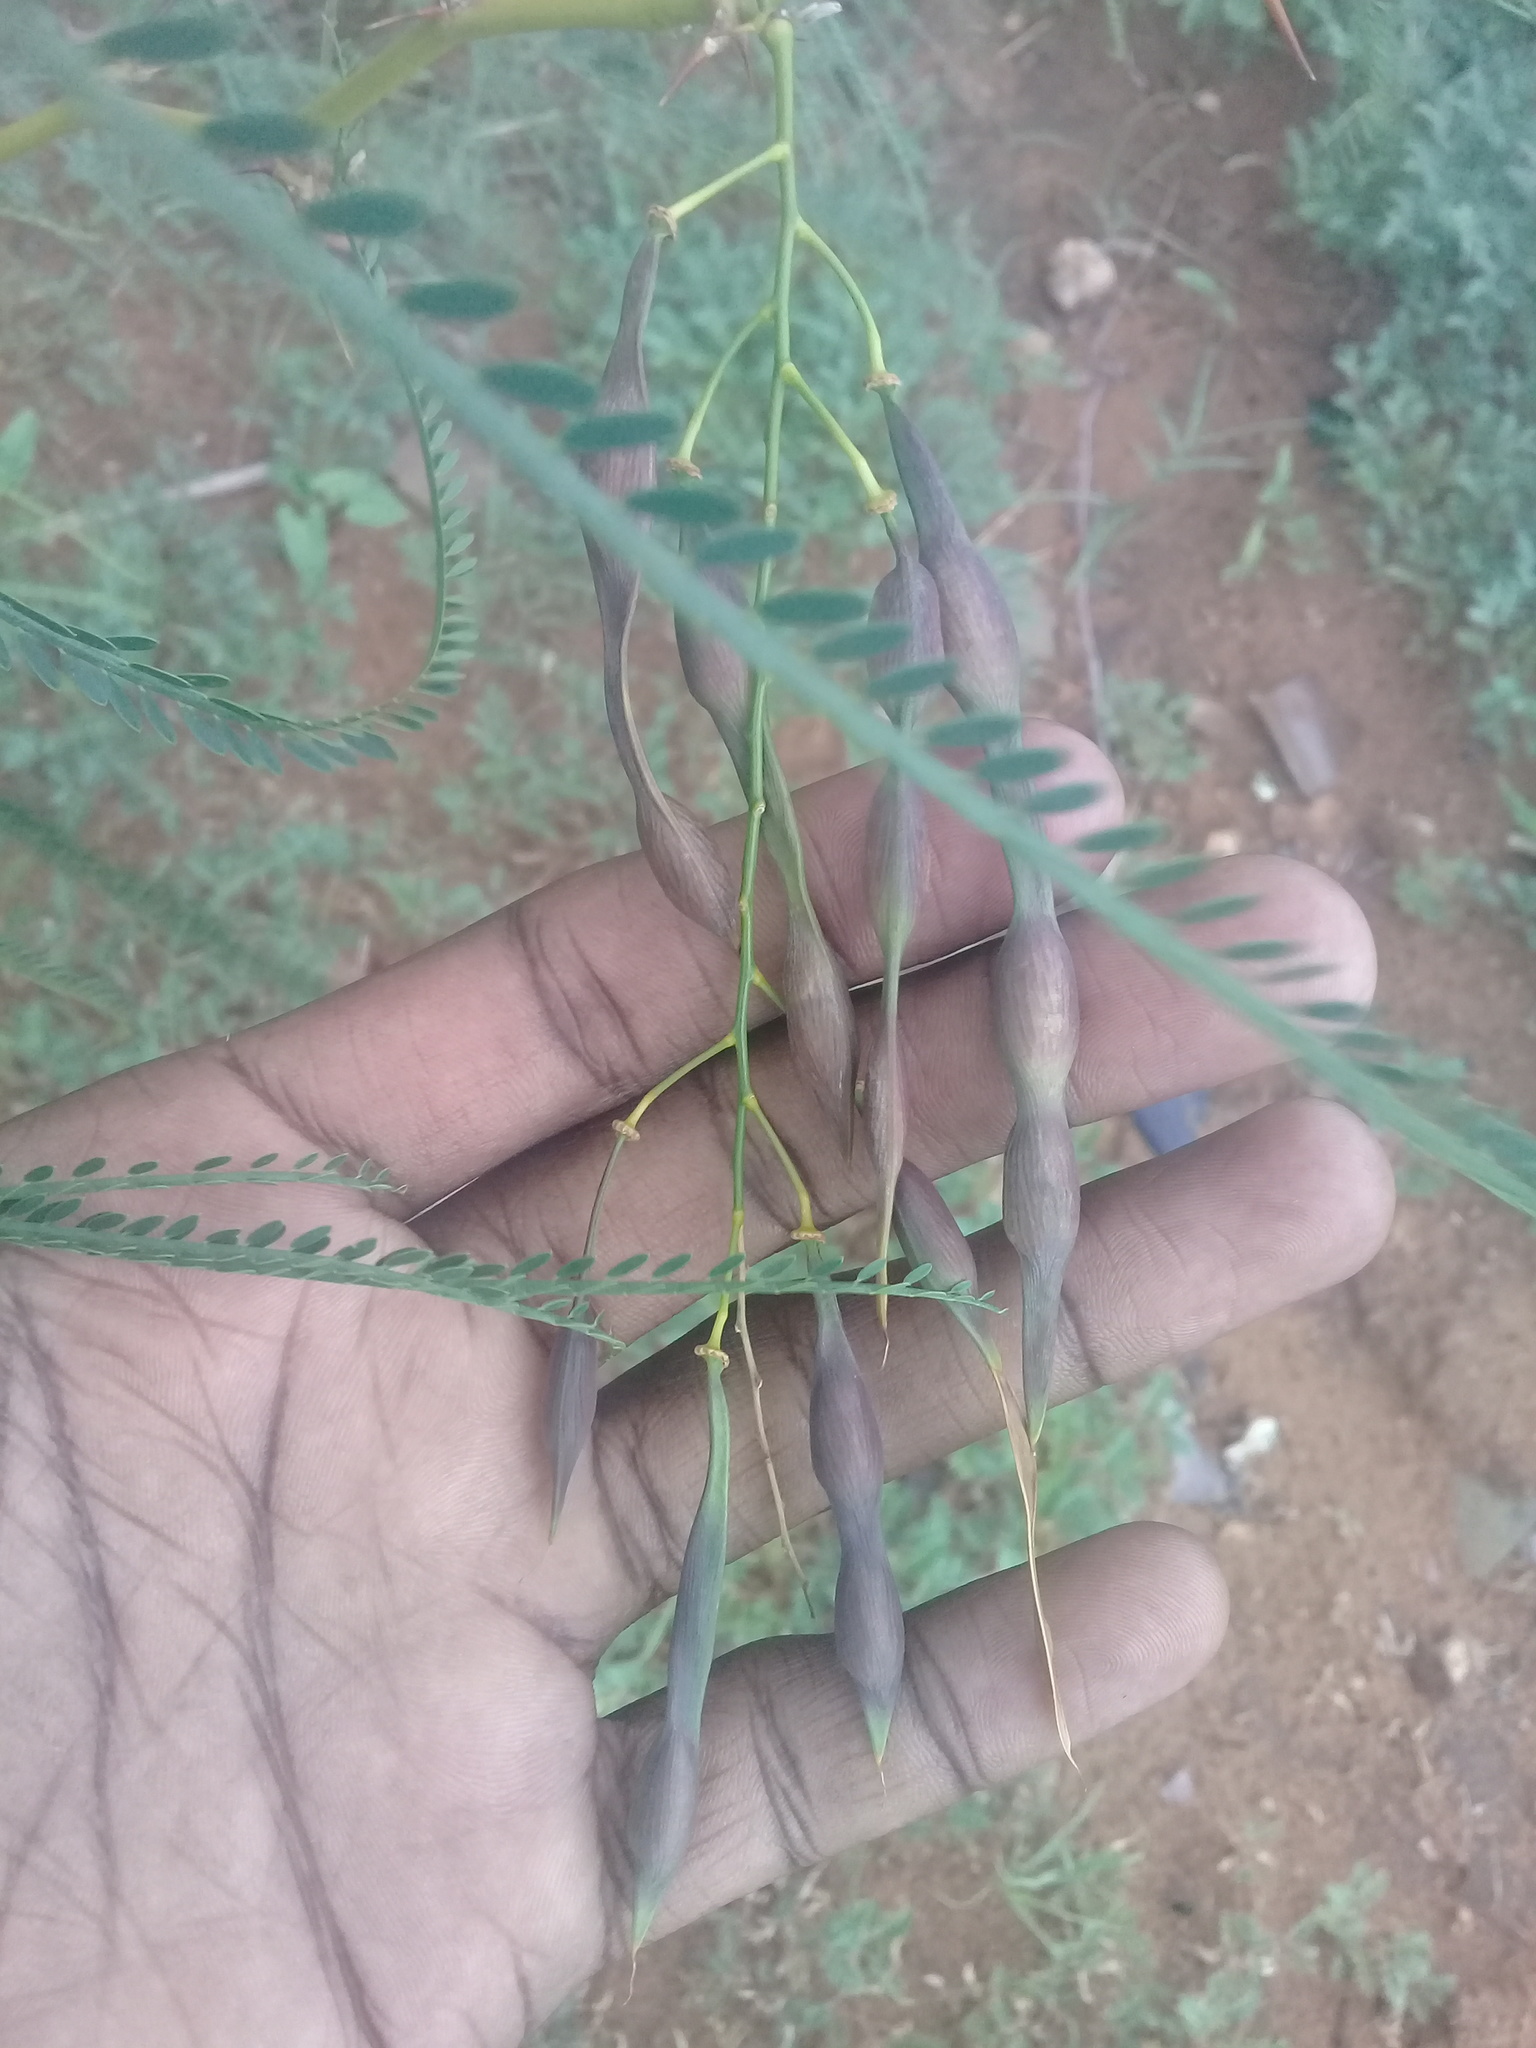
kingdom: Plantae
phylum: Tracheophyta
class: Magnoliopsida
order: Fabales
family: Fabaceae
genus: Parkinsonia
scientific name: Parkinsonia aculeata
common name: Jerusalem thorn
